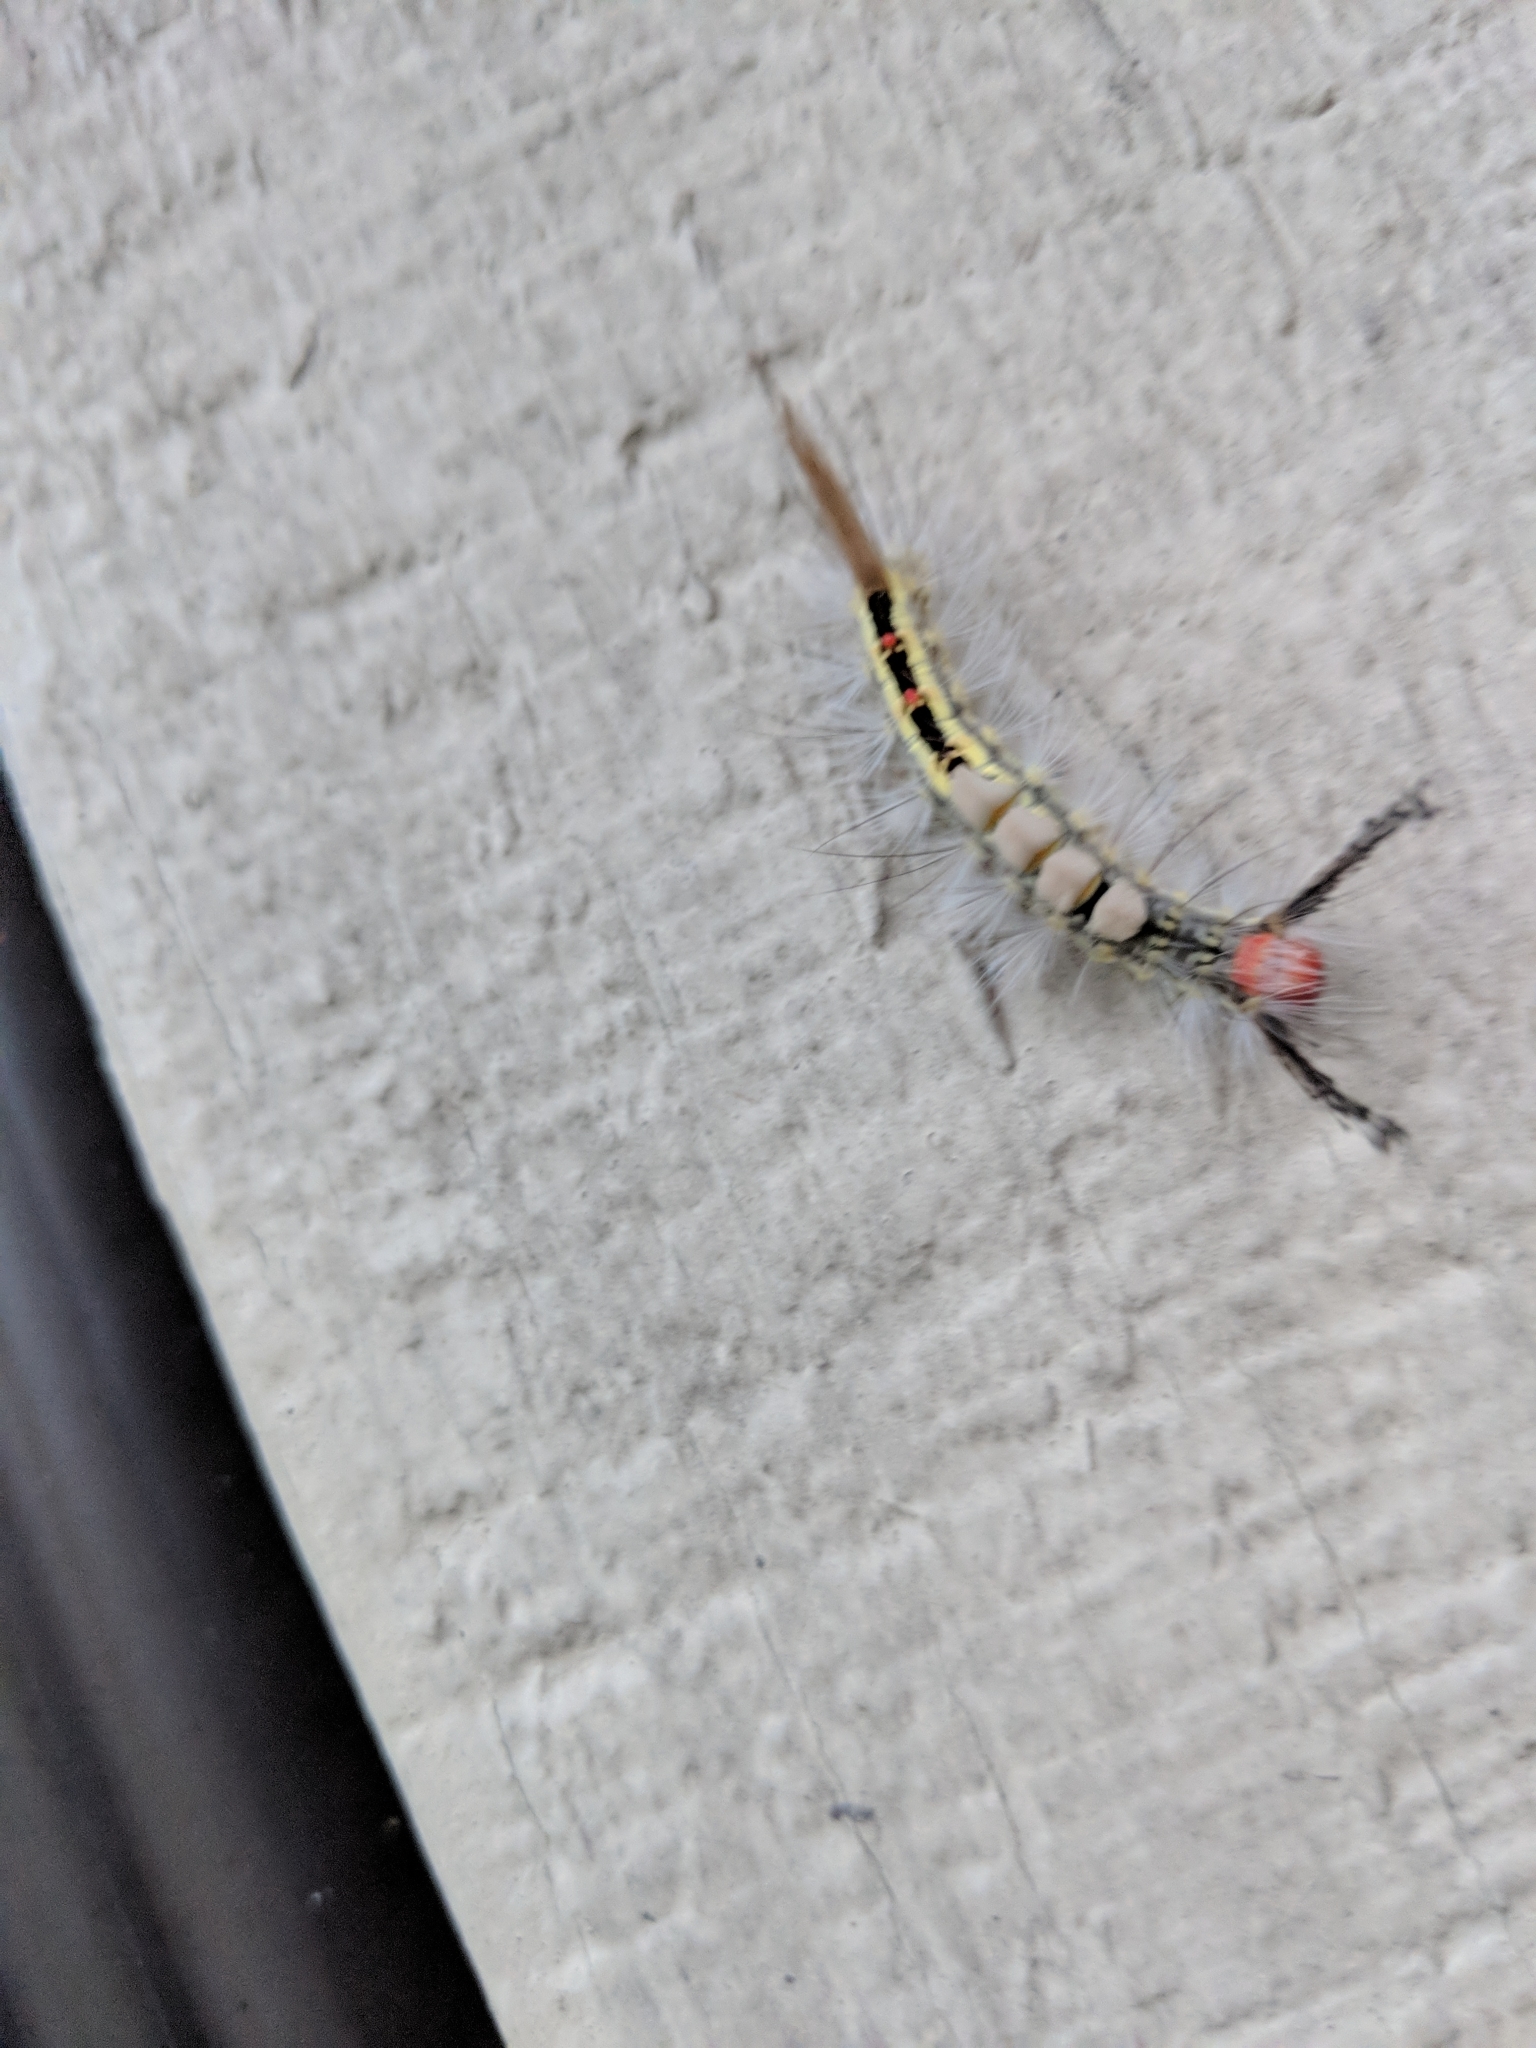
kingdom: Animalia
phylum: Arthropoda
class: Insecta
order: Lepidoptera
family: Erebidae
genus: Orgyia
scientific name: Orgyia leucostigma
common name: White-marked tussock moth
